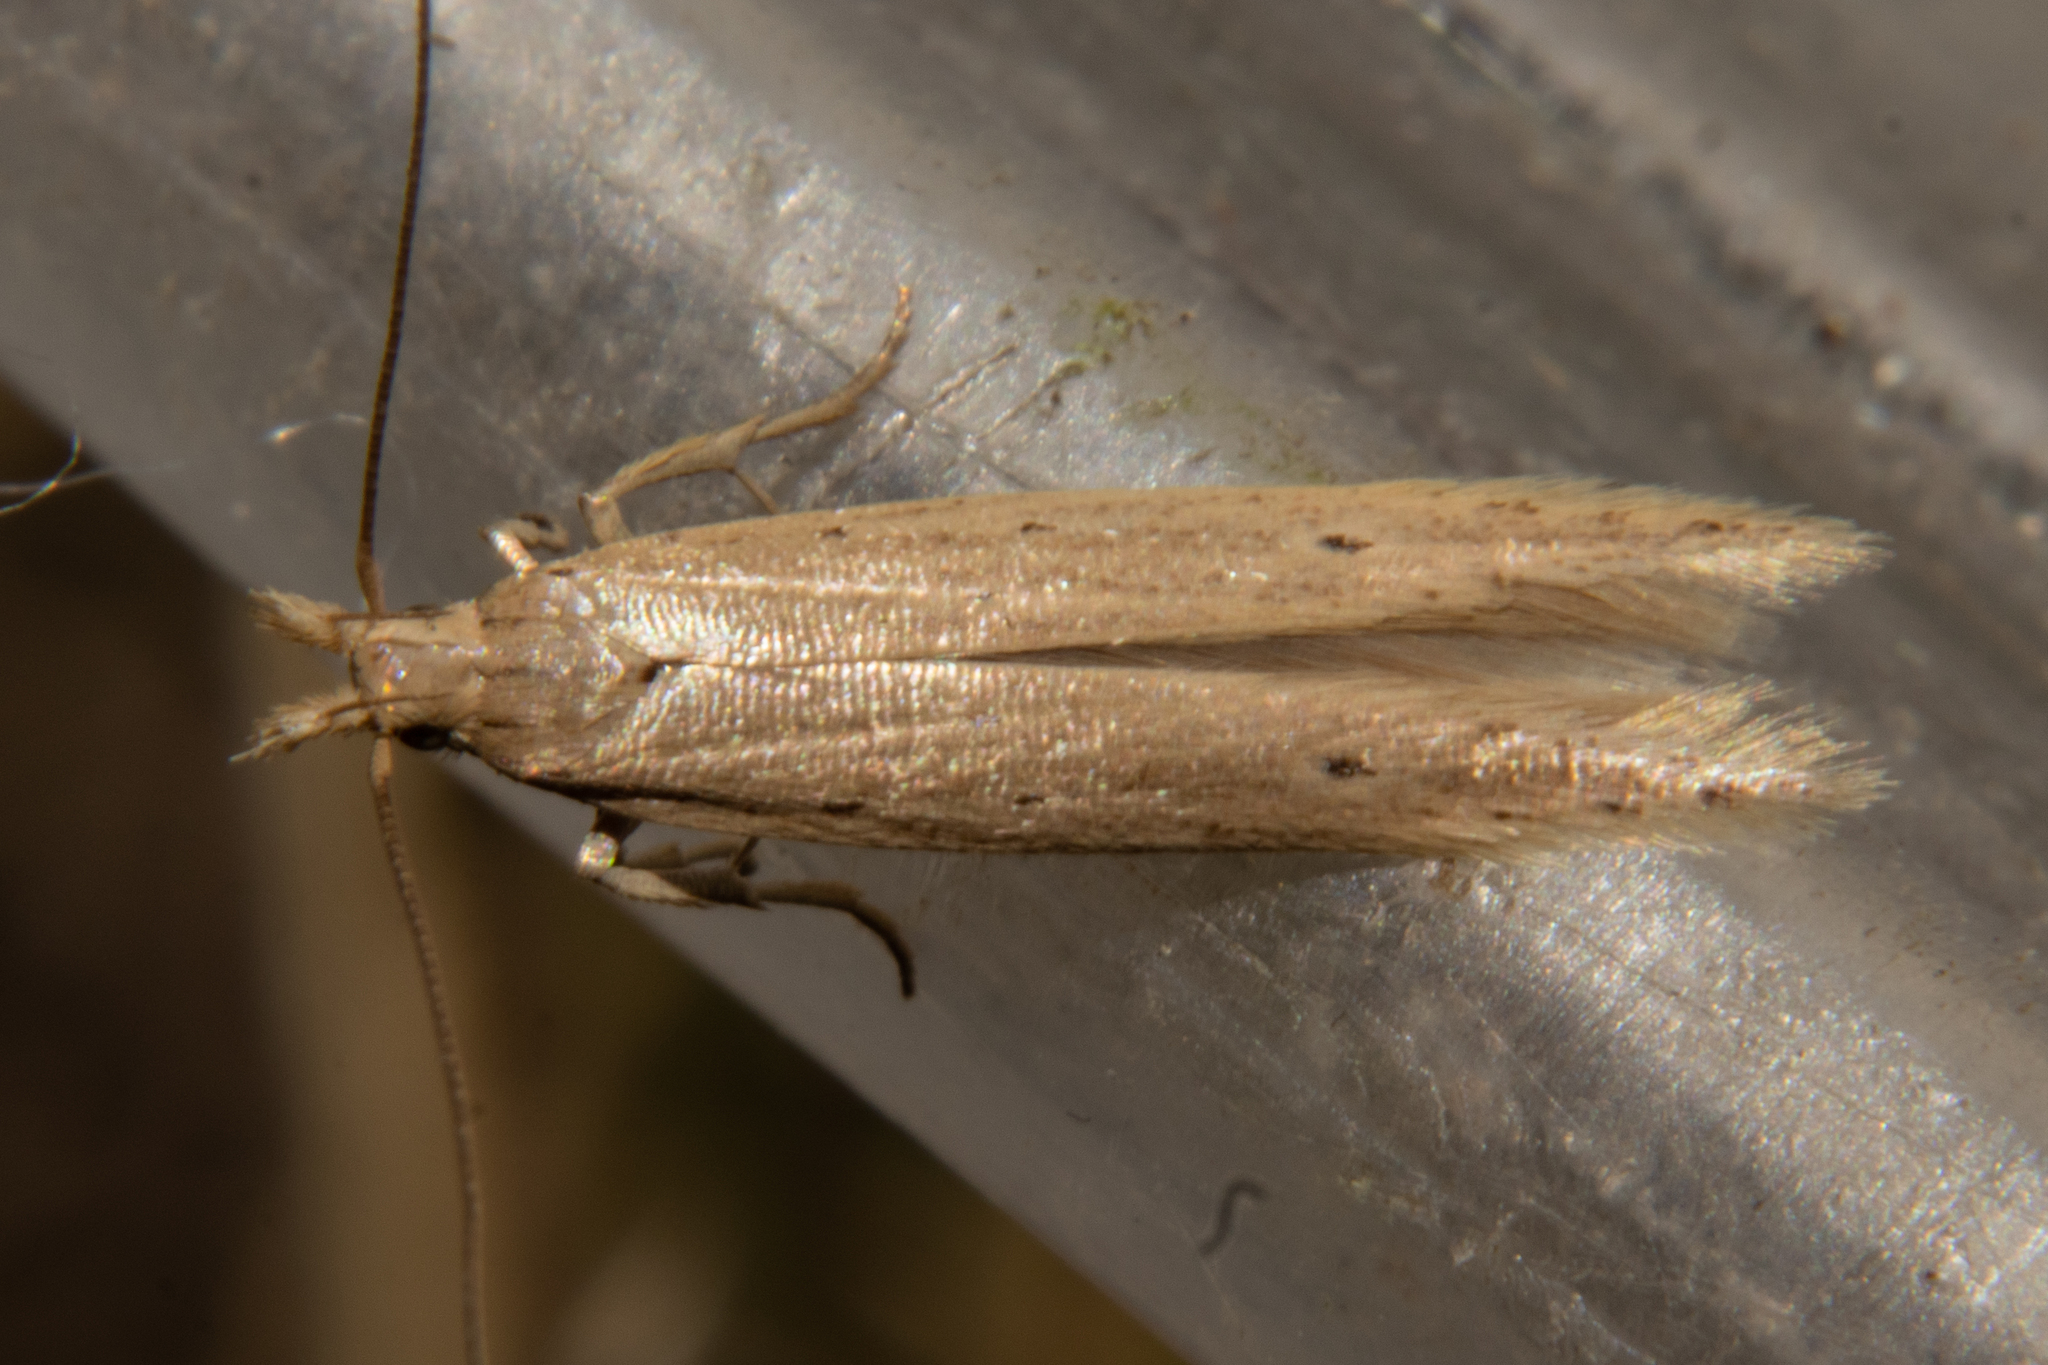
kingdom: Animalia
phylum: Arthropoda
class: Insecta
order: Lepidoptera
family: Gelechiidae
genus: Epiphthora
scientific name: Epiphthora calamogonus
